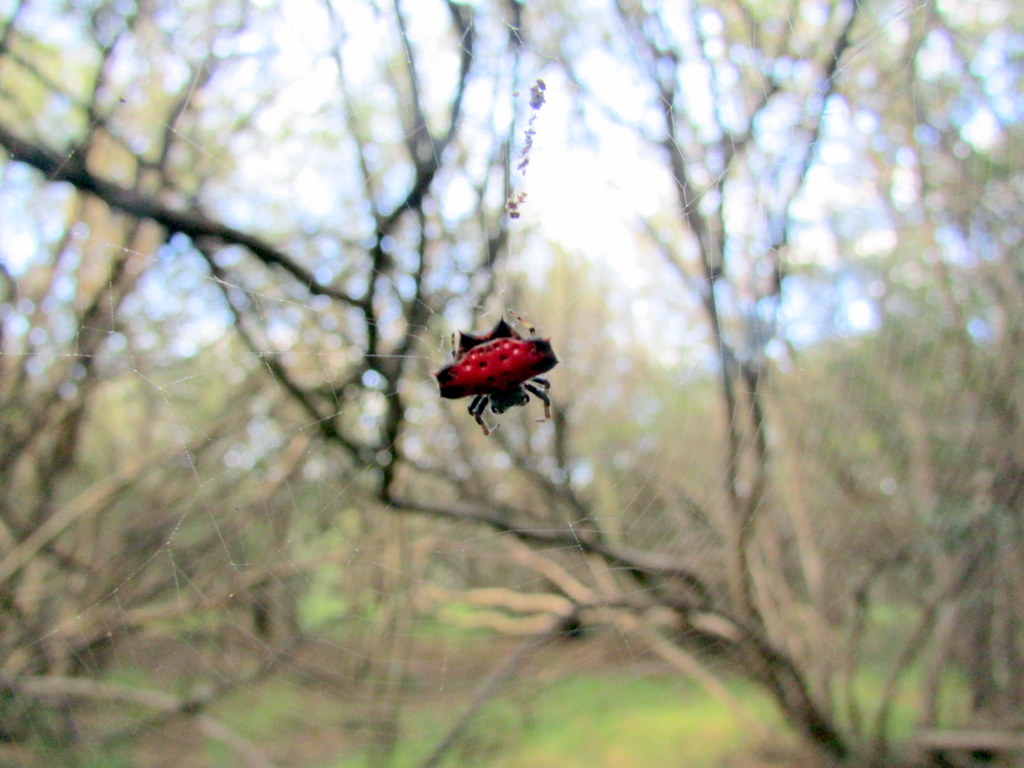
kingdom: Animalia
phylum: Arthropoda
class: Arachnida
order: Araneae
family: Araneidae
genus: Gasteracantha
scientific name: Gasteracantha cancriformis
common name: Orb weavers
